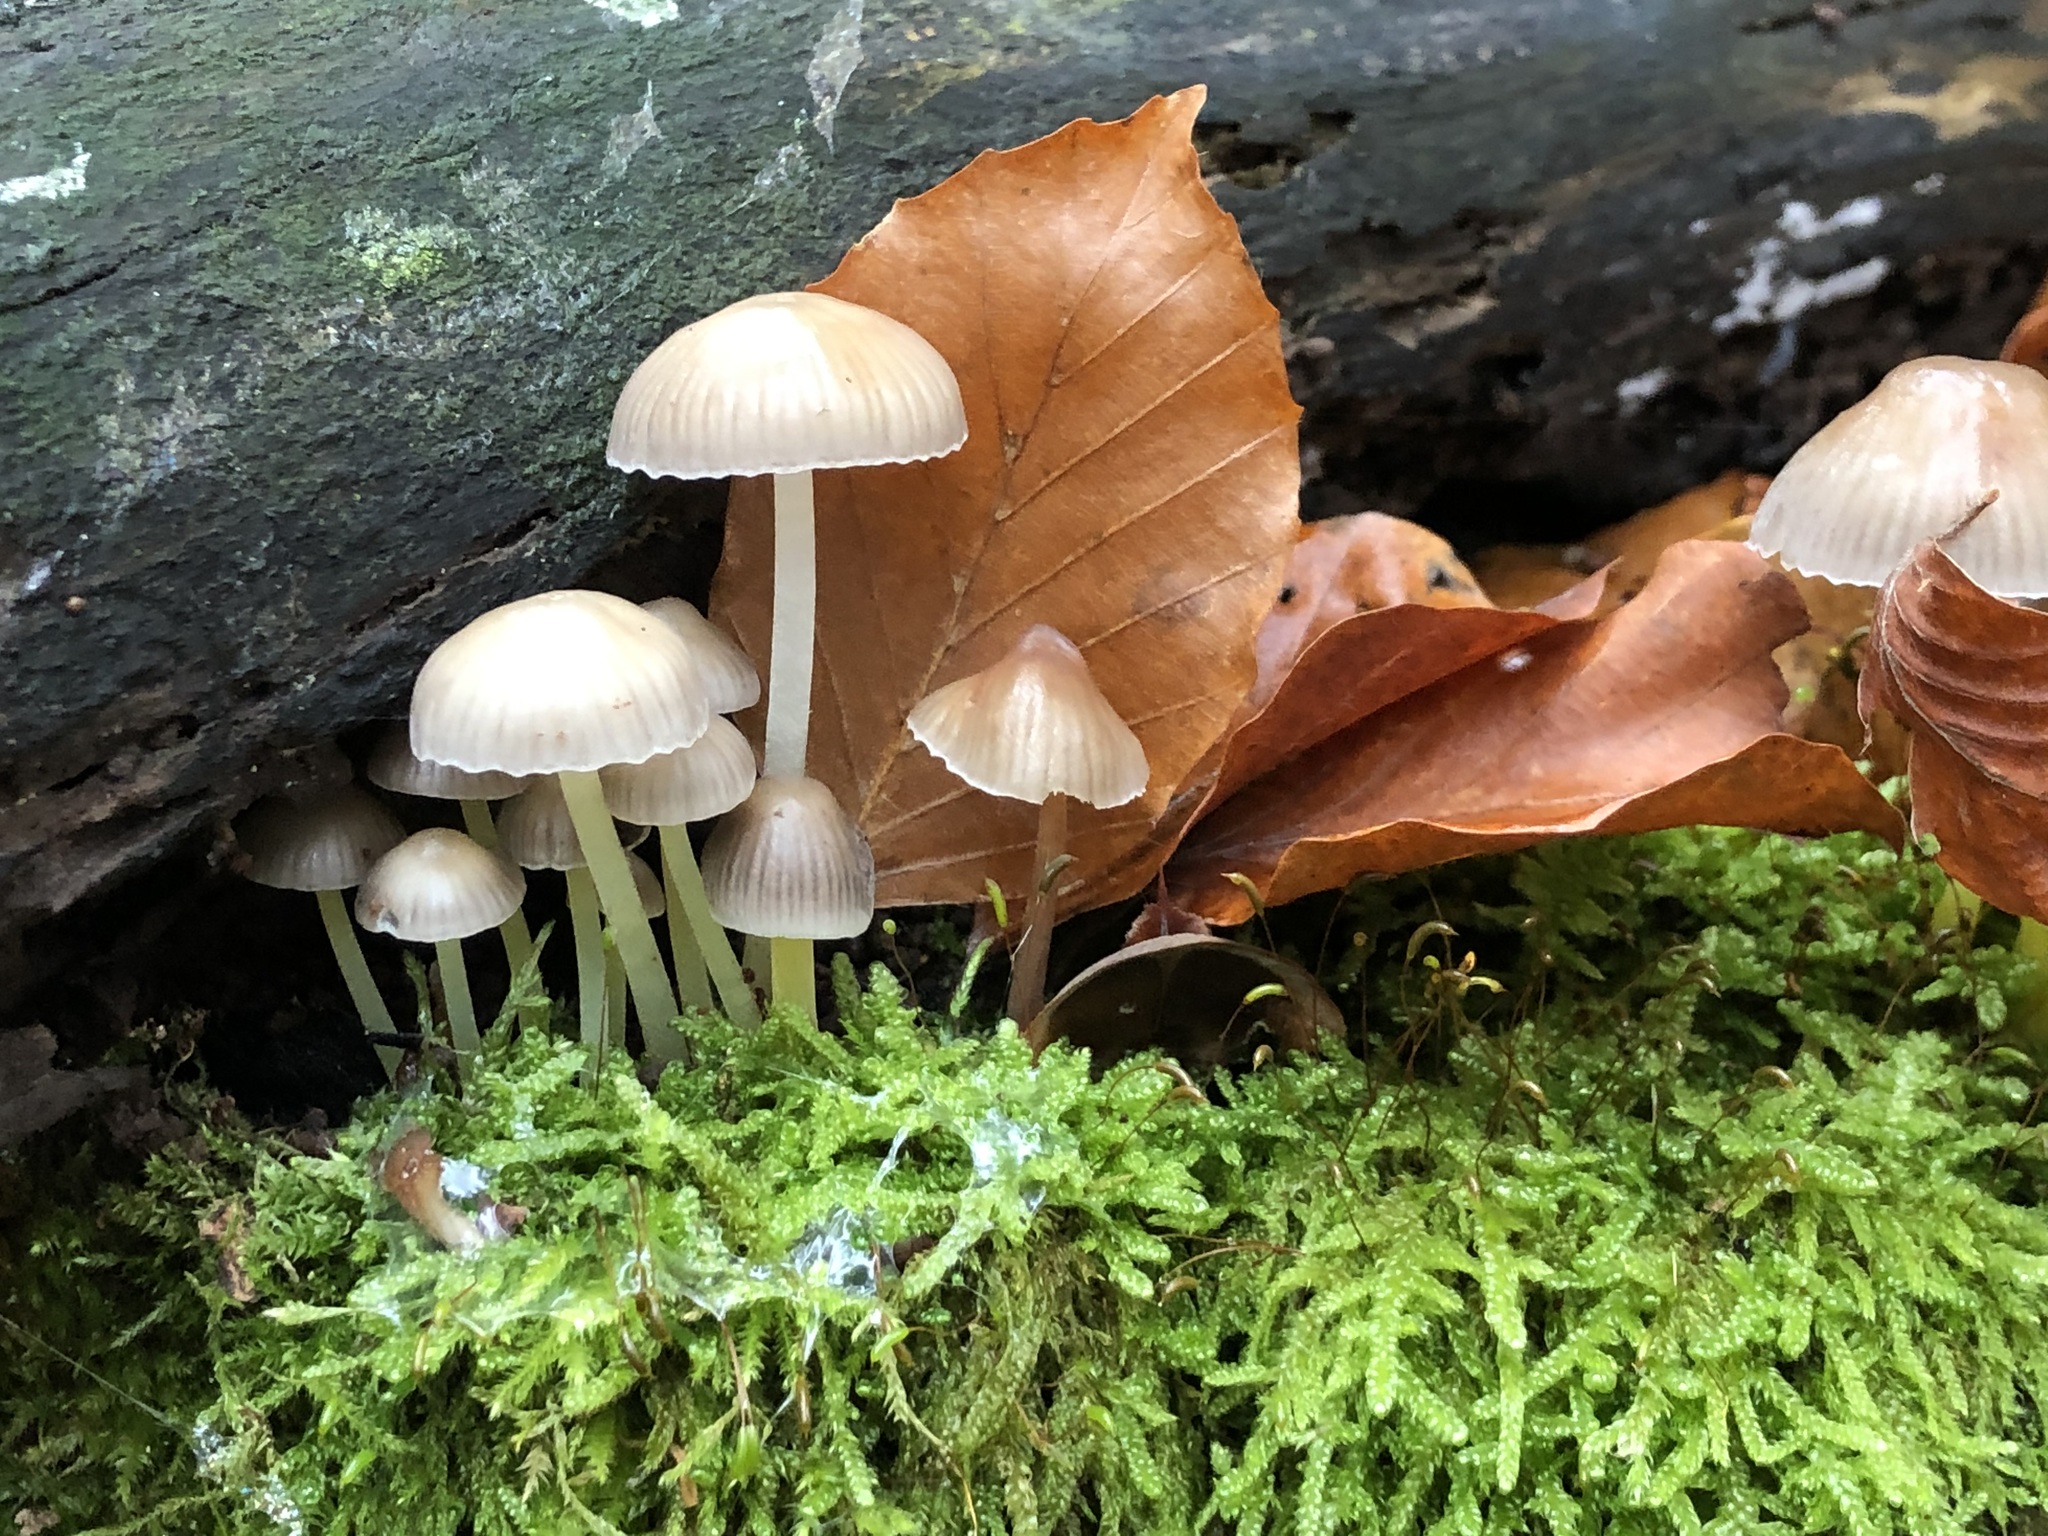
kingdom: Fungi
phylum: Basidiomycota
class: Agaricomycetes
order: Agaricales
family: Mycenaceae
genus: Mycena
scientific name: Mycena epipterygia
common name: Yellowleg bonnet
